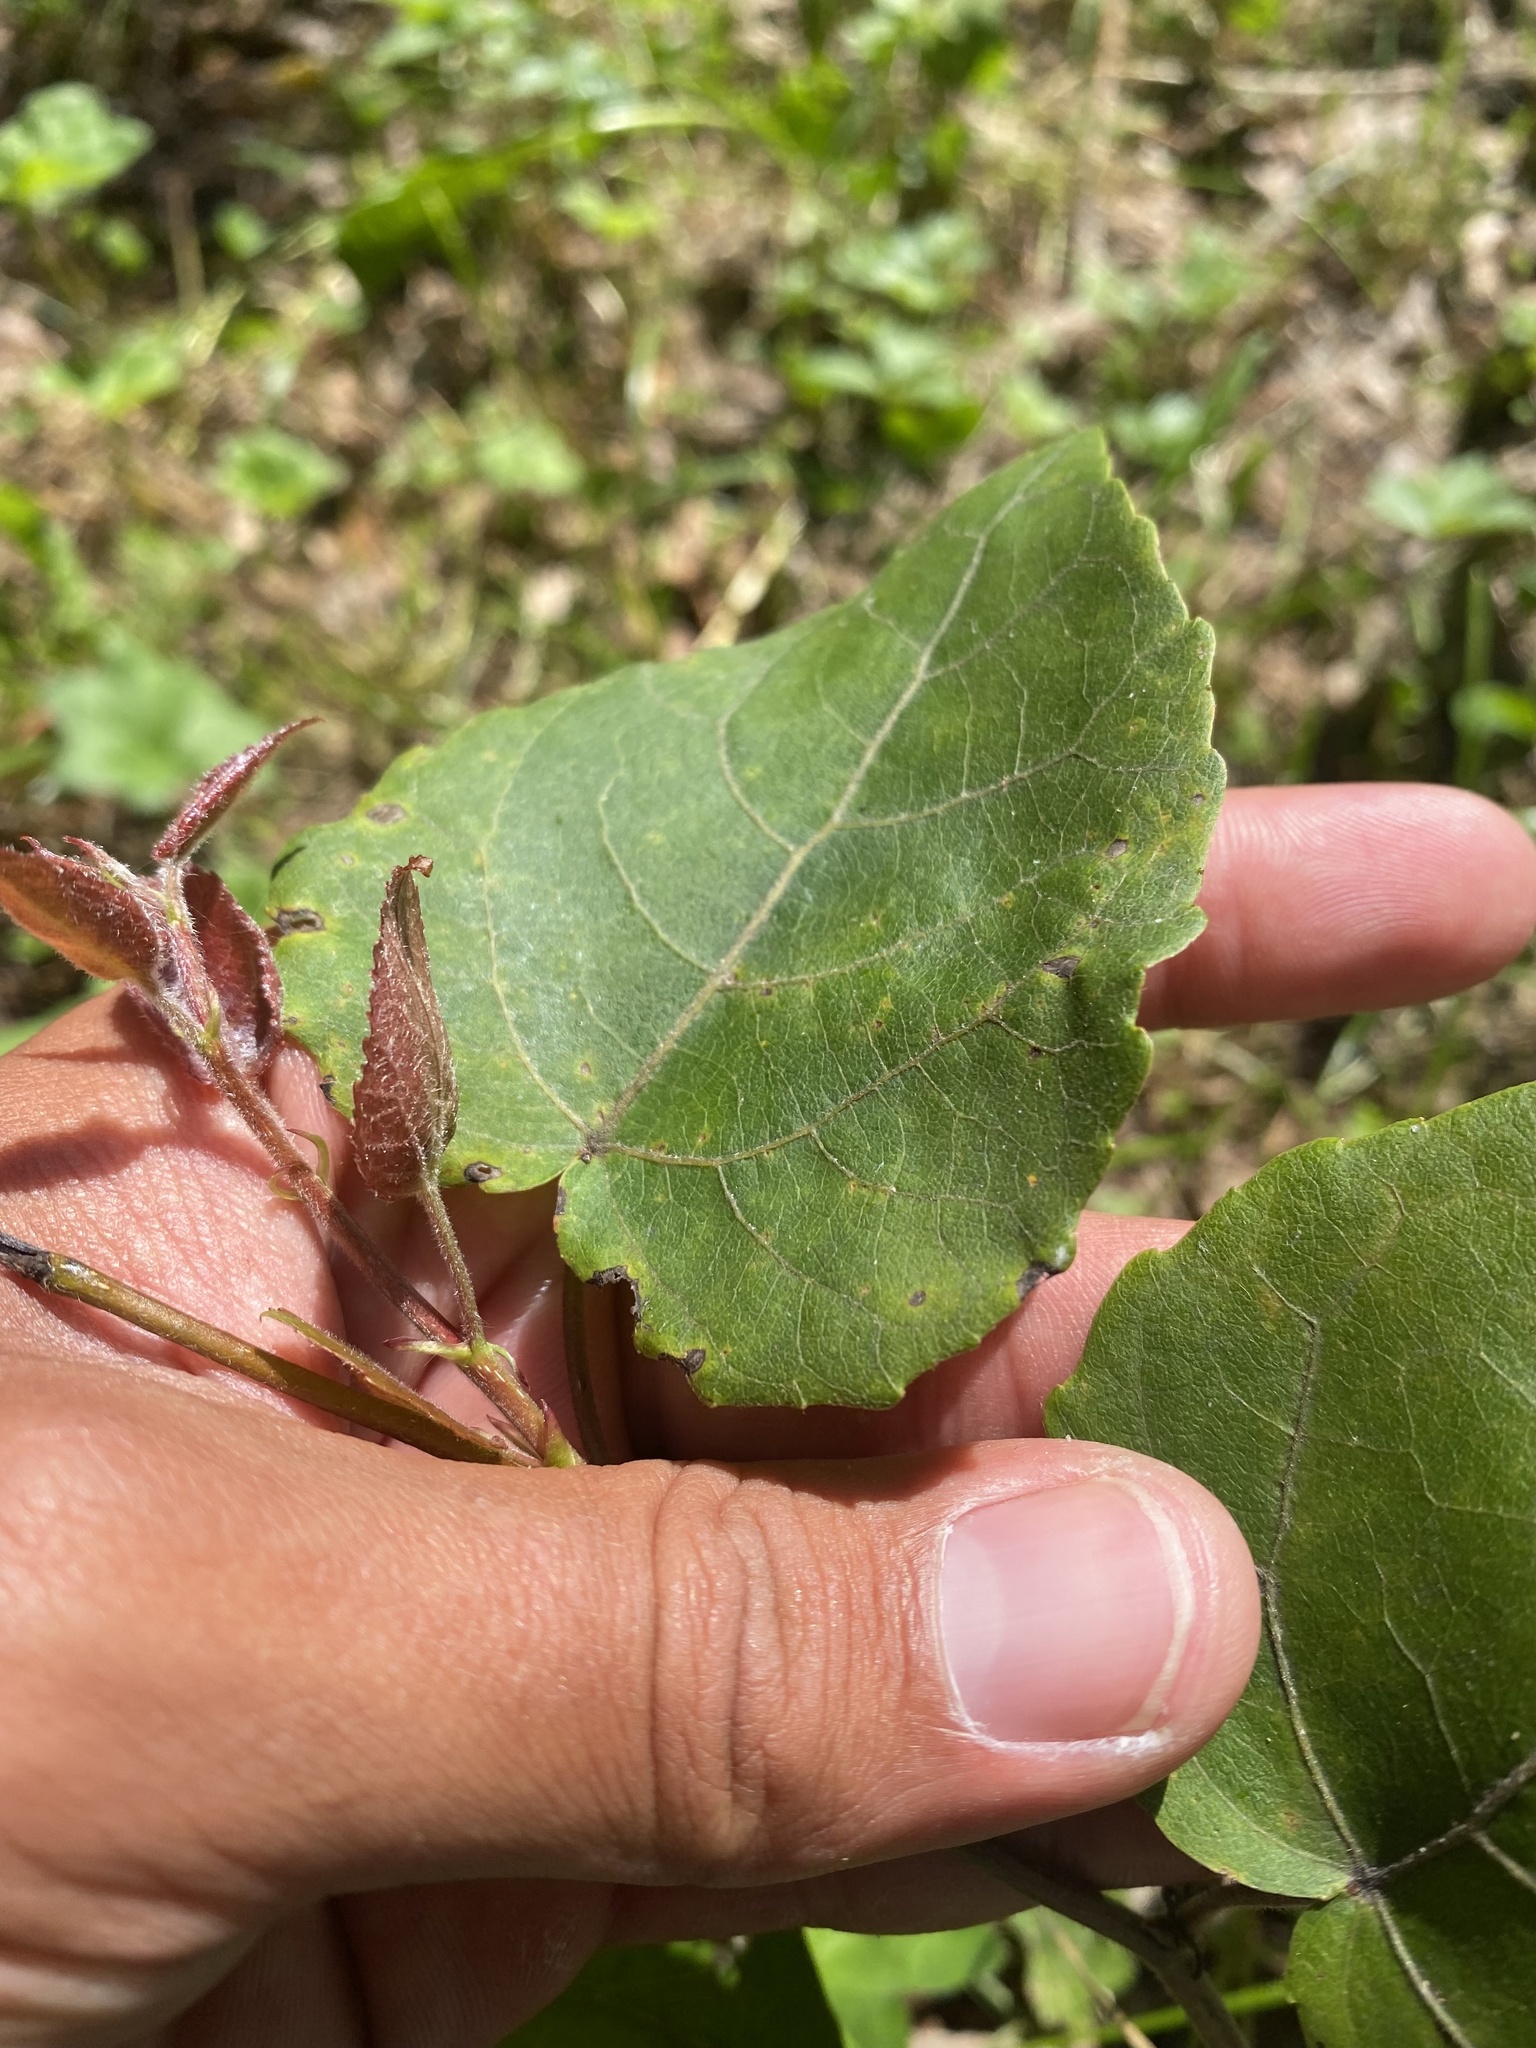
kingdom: Plantae
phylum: Tracheophyta
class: Magnoliopsida
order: Malpighiales
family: Salicaceae
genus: Populus
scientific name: Populus tremula
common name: European aspen
